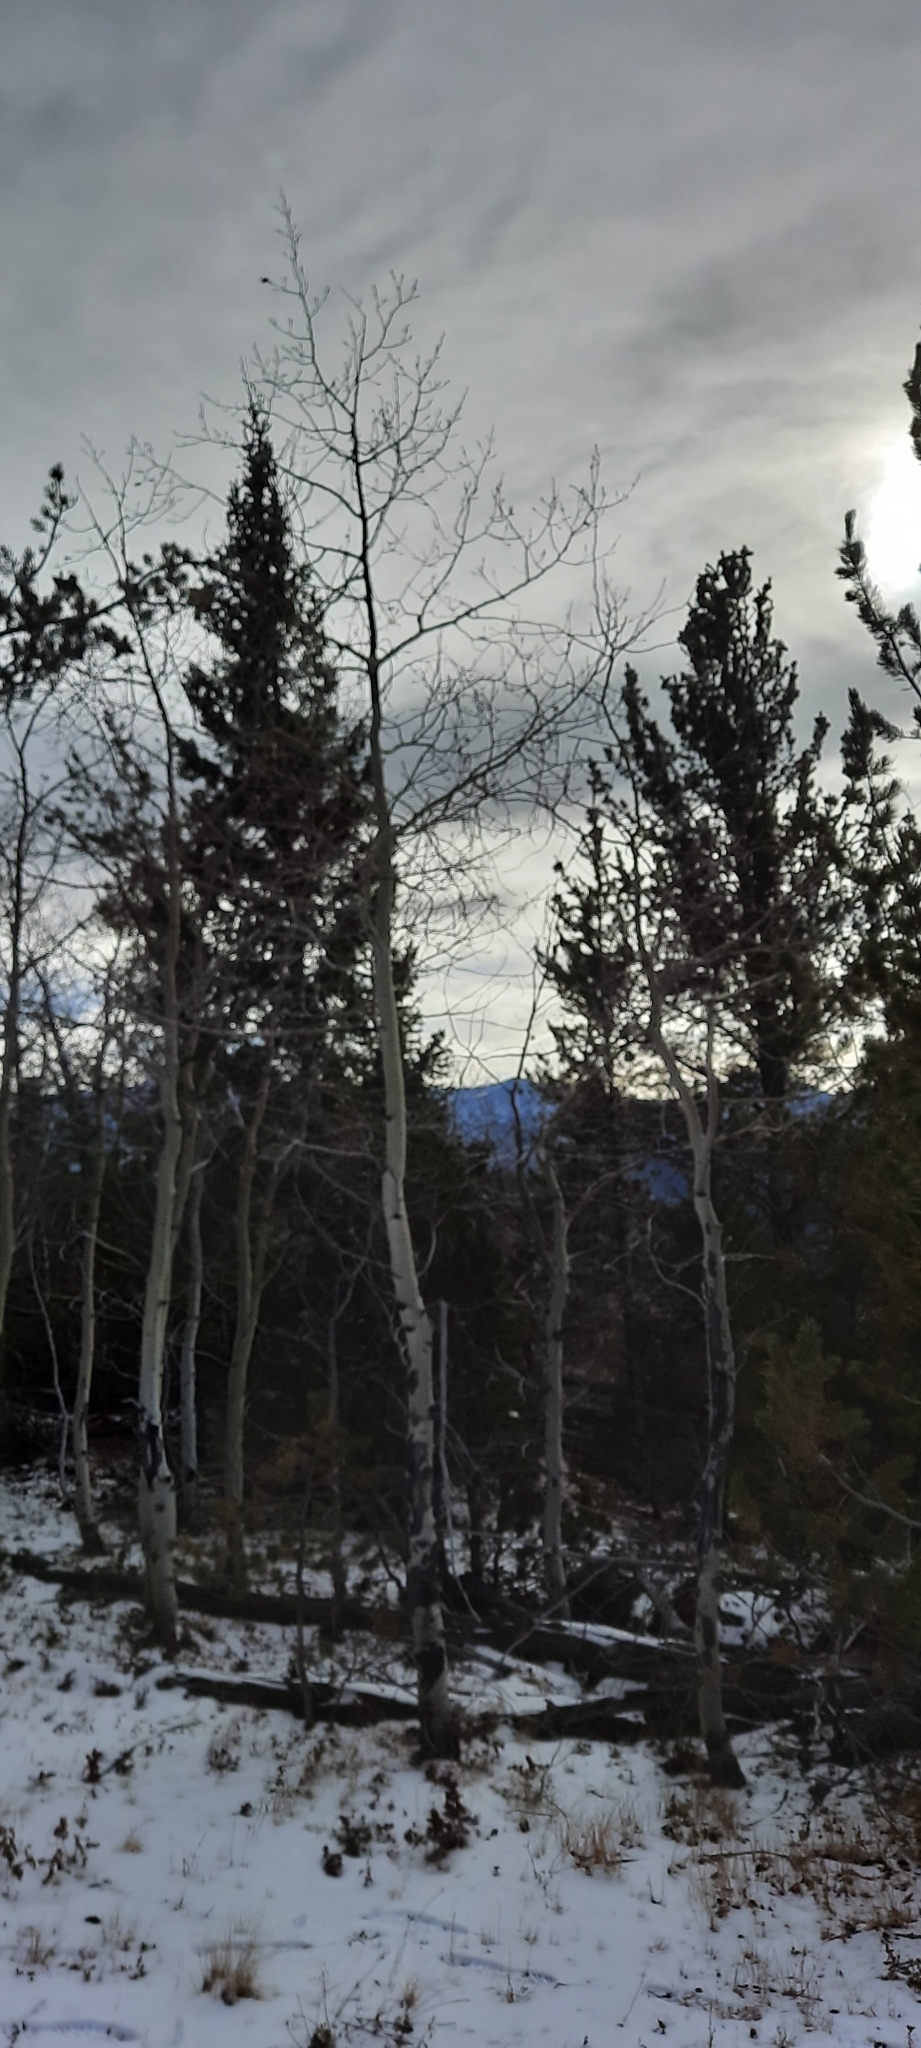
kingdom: Plantae
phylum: Tracheophyta
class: Magnoliopsida
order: Malpighiales
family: Salicaceae
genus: Populus
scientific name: Populus tremuloides
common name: Quaking aspen
